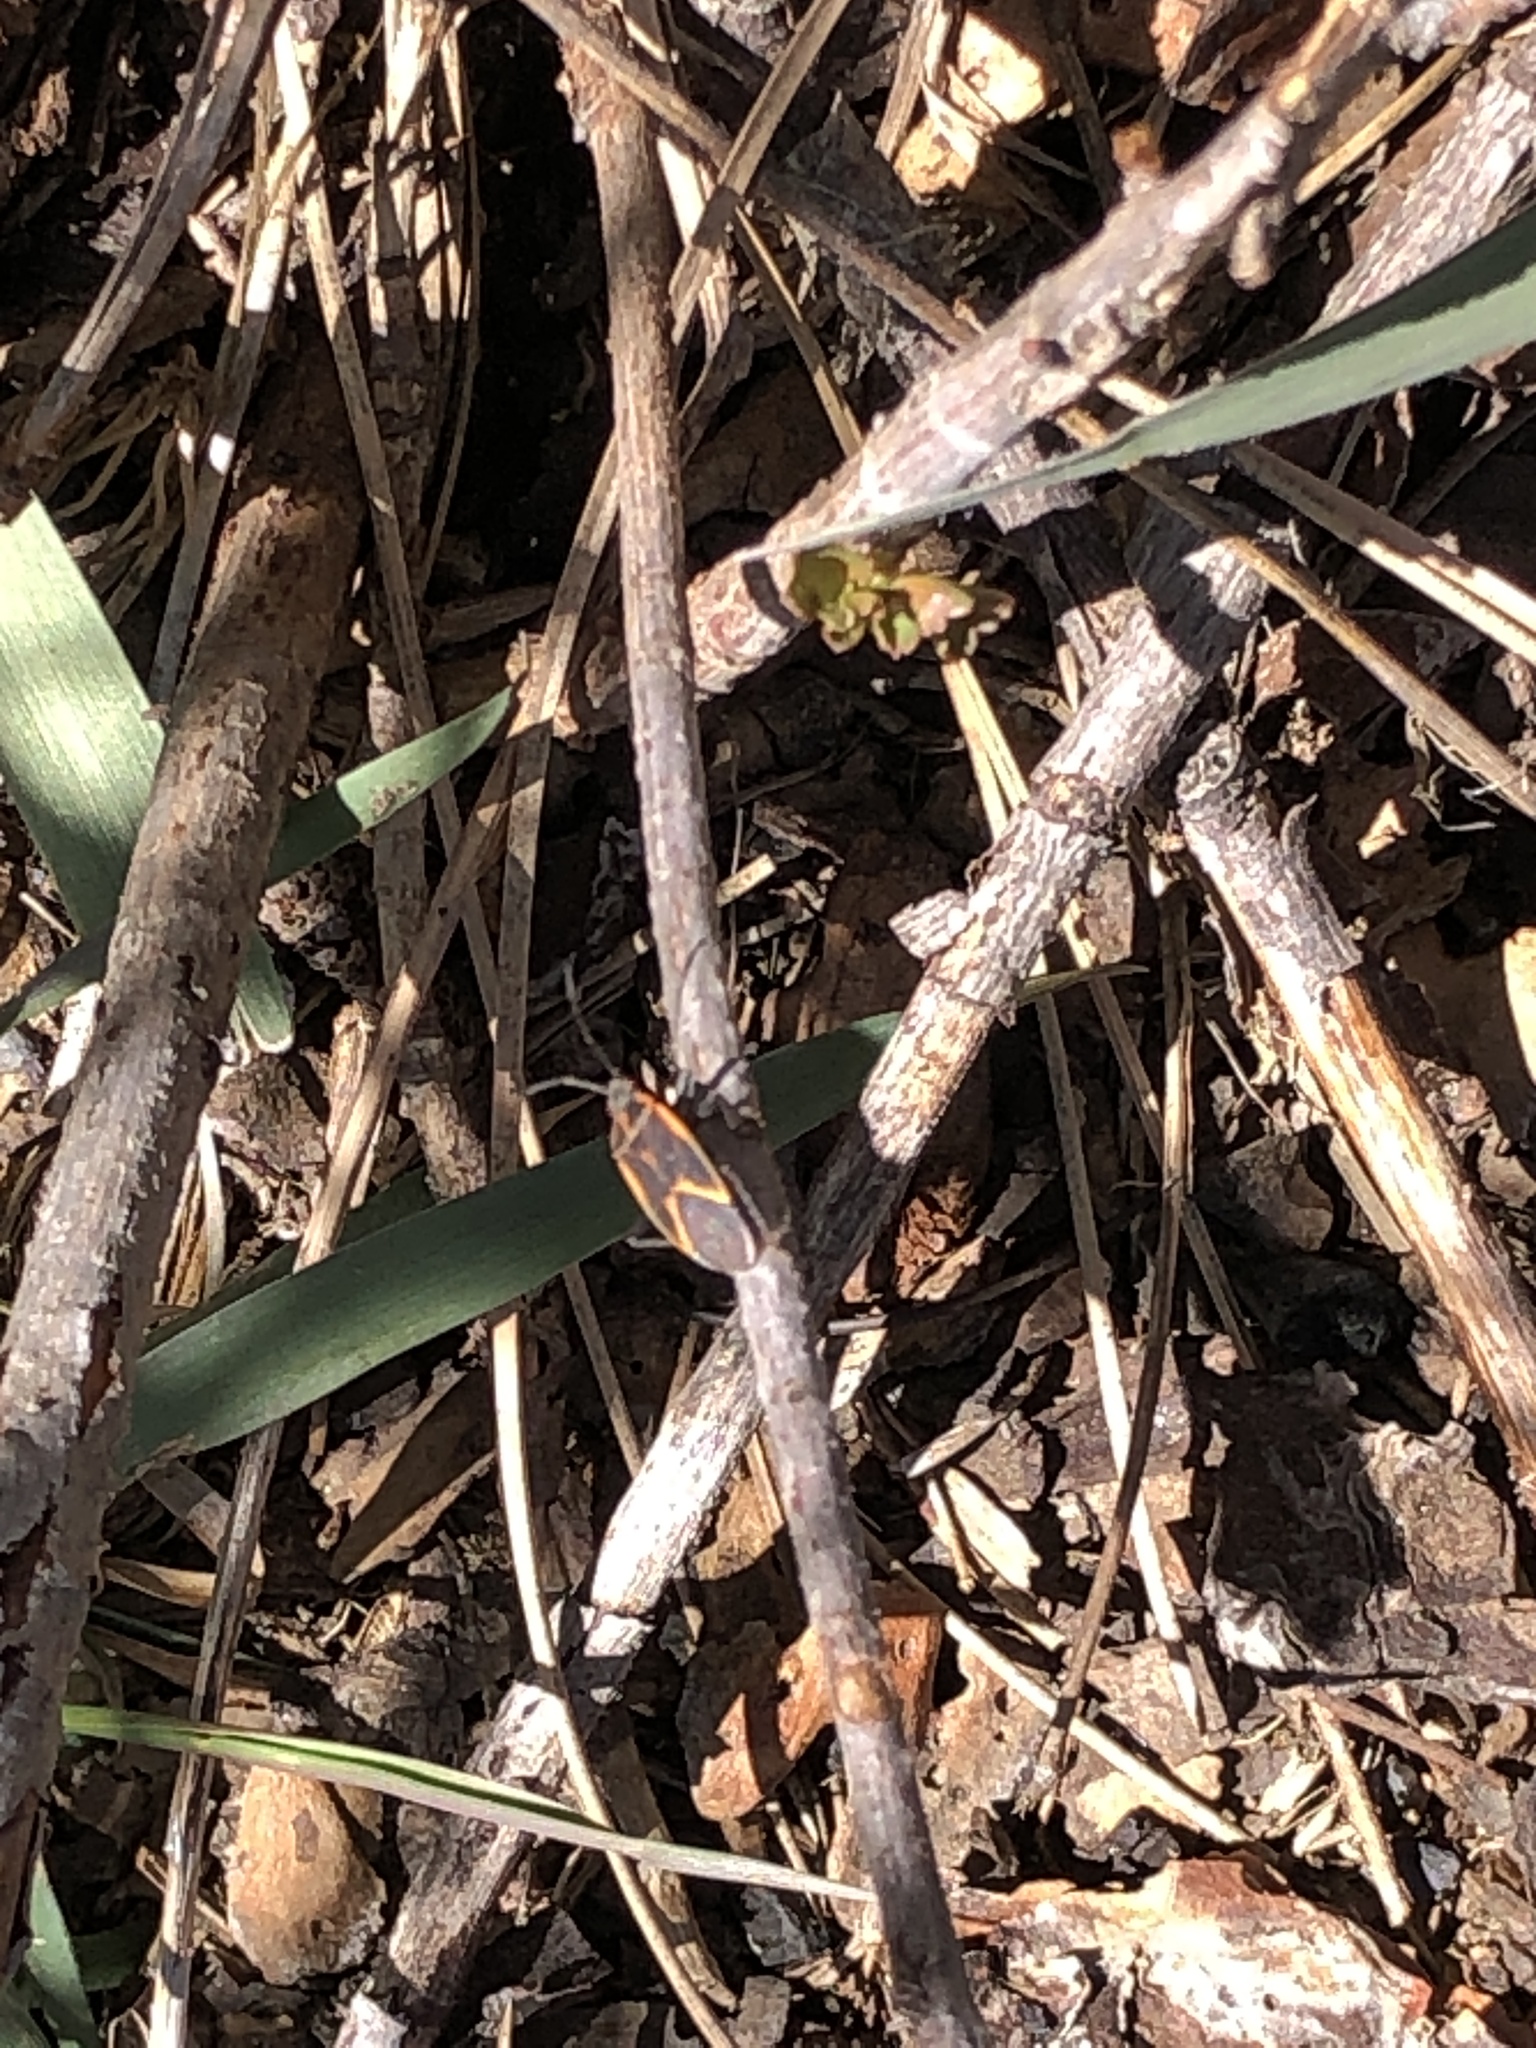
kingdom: Animalia
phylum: Arthropoda
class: Insecta
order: Hemiptera
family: Rhopalidae
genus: Boisea
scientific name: Boisea trivittata
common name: Boxelder bug
